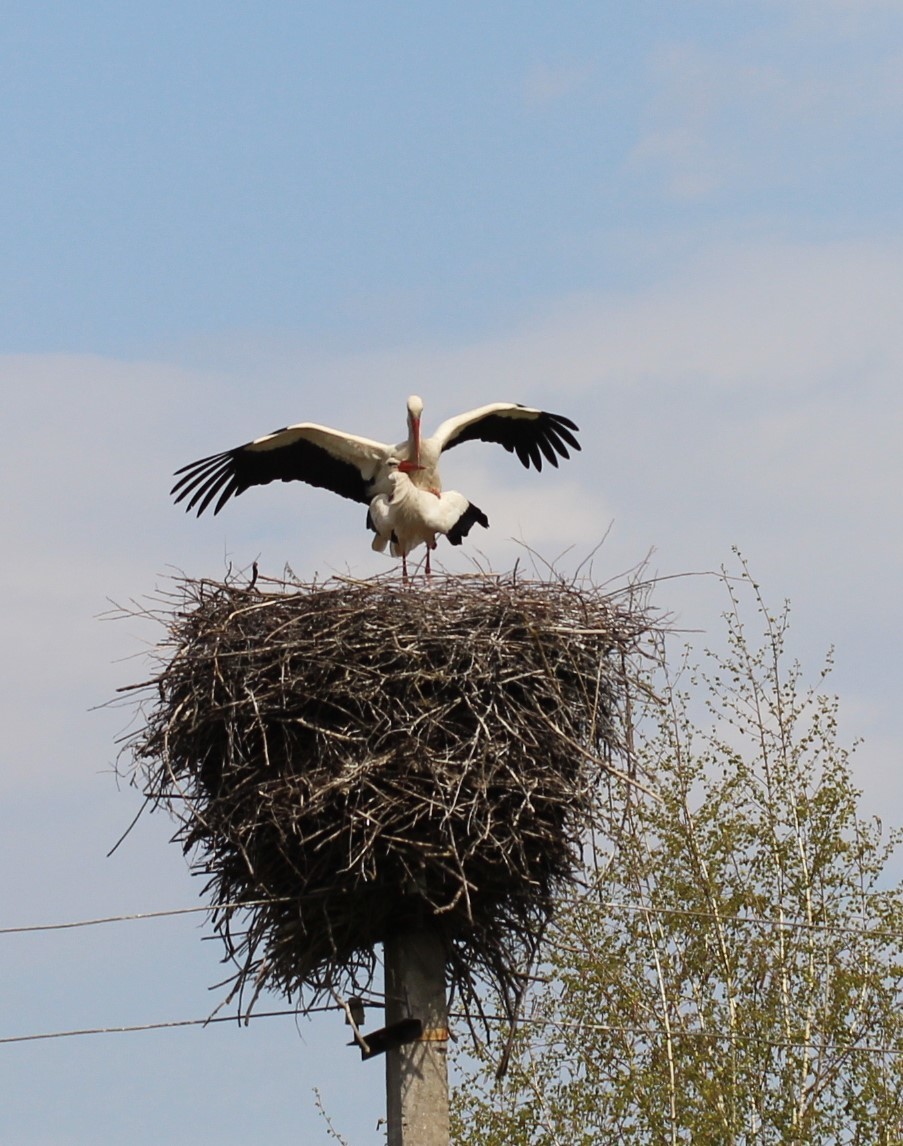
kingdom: Animalia
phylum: Chordata
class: Aves
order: Ciconiiformes
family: Ciconiidae
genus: Ciconia
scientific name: Ciconia ciconia
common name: White stork
